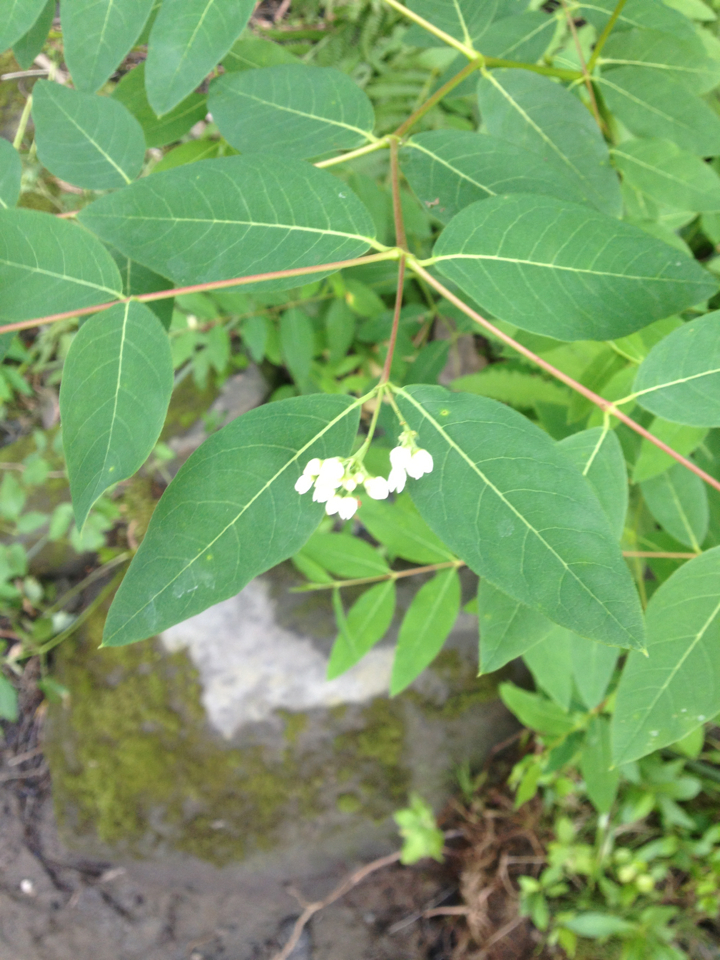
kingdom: Plantae
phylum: Tracheophyta
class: Magnoliopsida
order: Gentianales
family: Apocynaceae
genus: Apocynum
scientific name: Apocynum androsaemifolium
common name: Spreading dogbane
